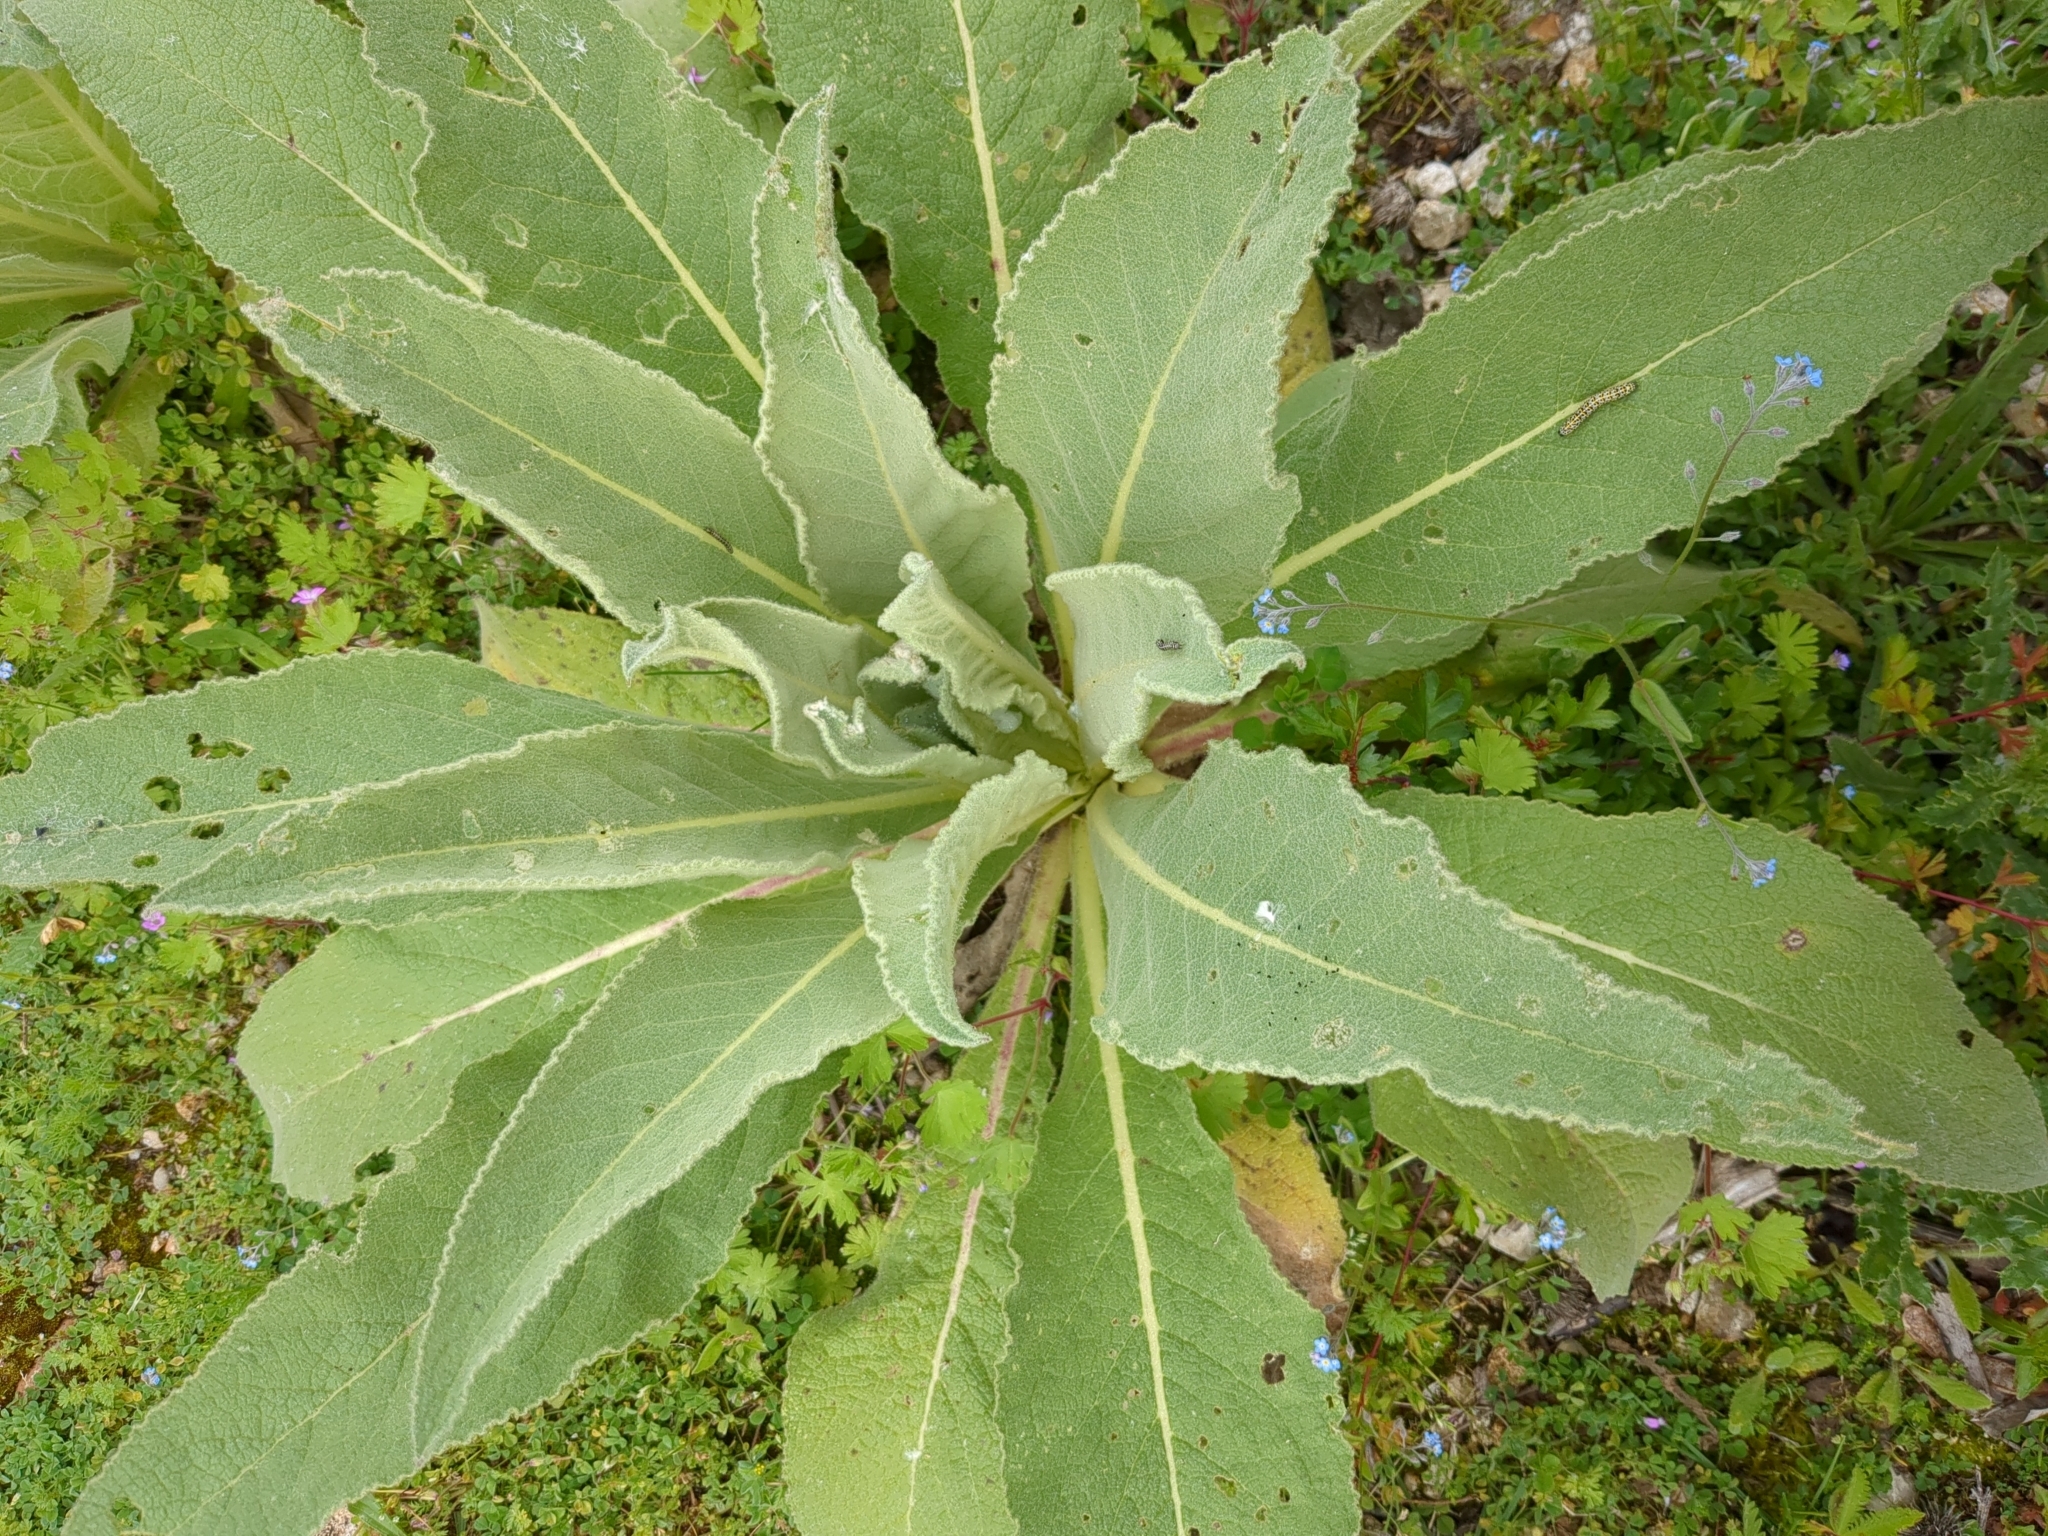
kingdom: Animalia
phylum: Arthropoda
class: Insecta
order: Lepidoptera
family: Noctuidae
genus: Cucullia
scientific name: Cucullia verbasci
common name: Mullein
